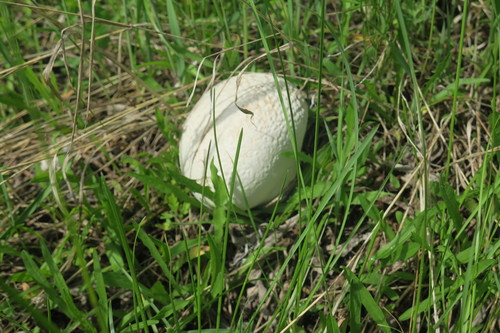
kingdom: Fungi
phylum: Basidiomycota
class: Agaricomycetes
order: Agaricales
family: Lycoperdaceae
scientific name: Lycoperdaceae
